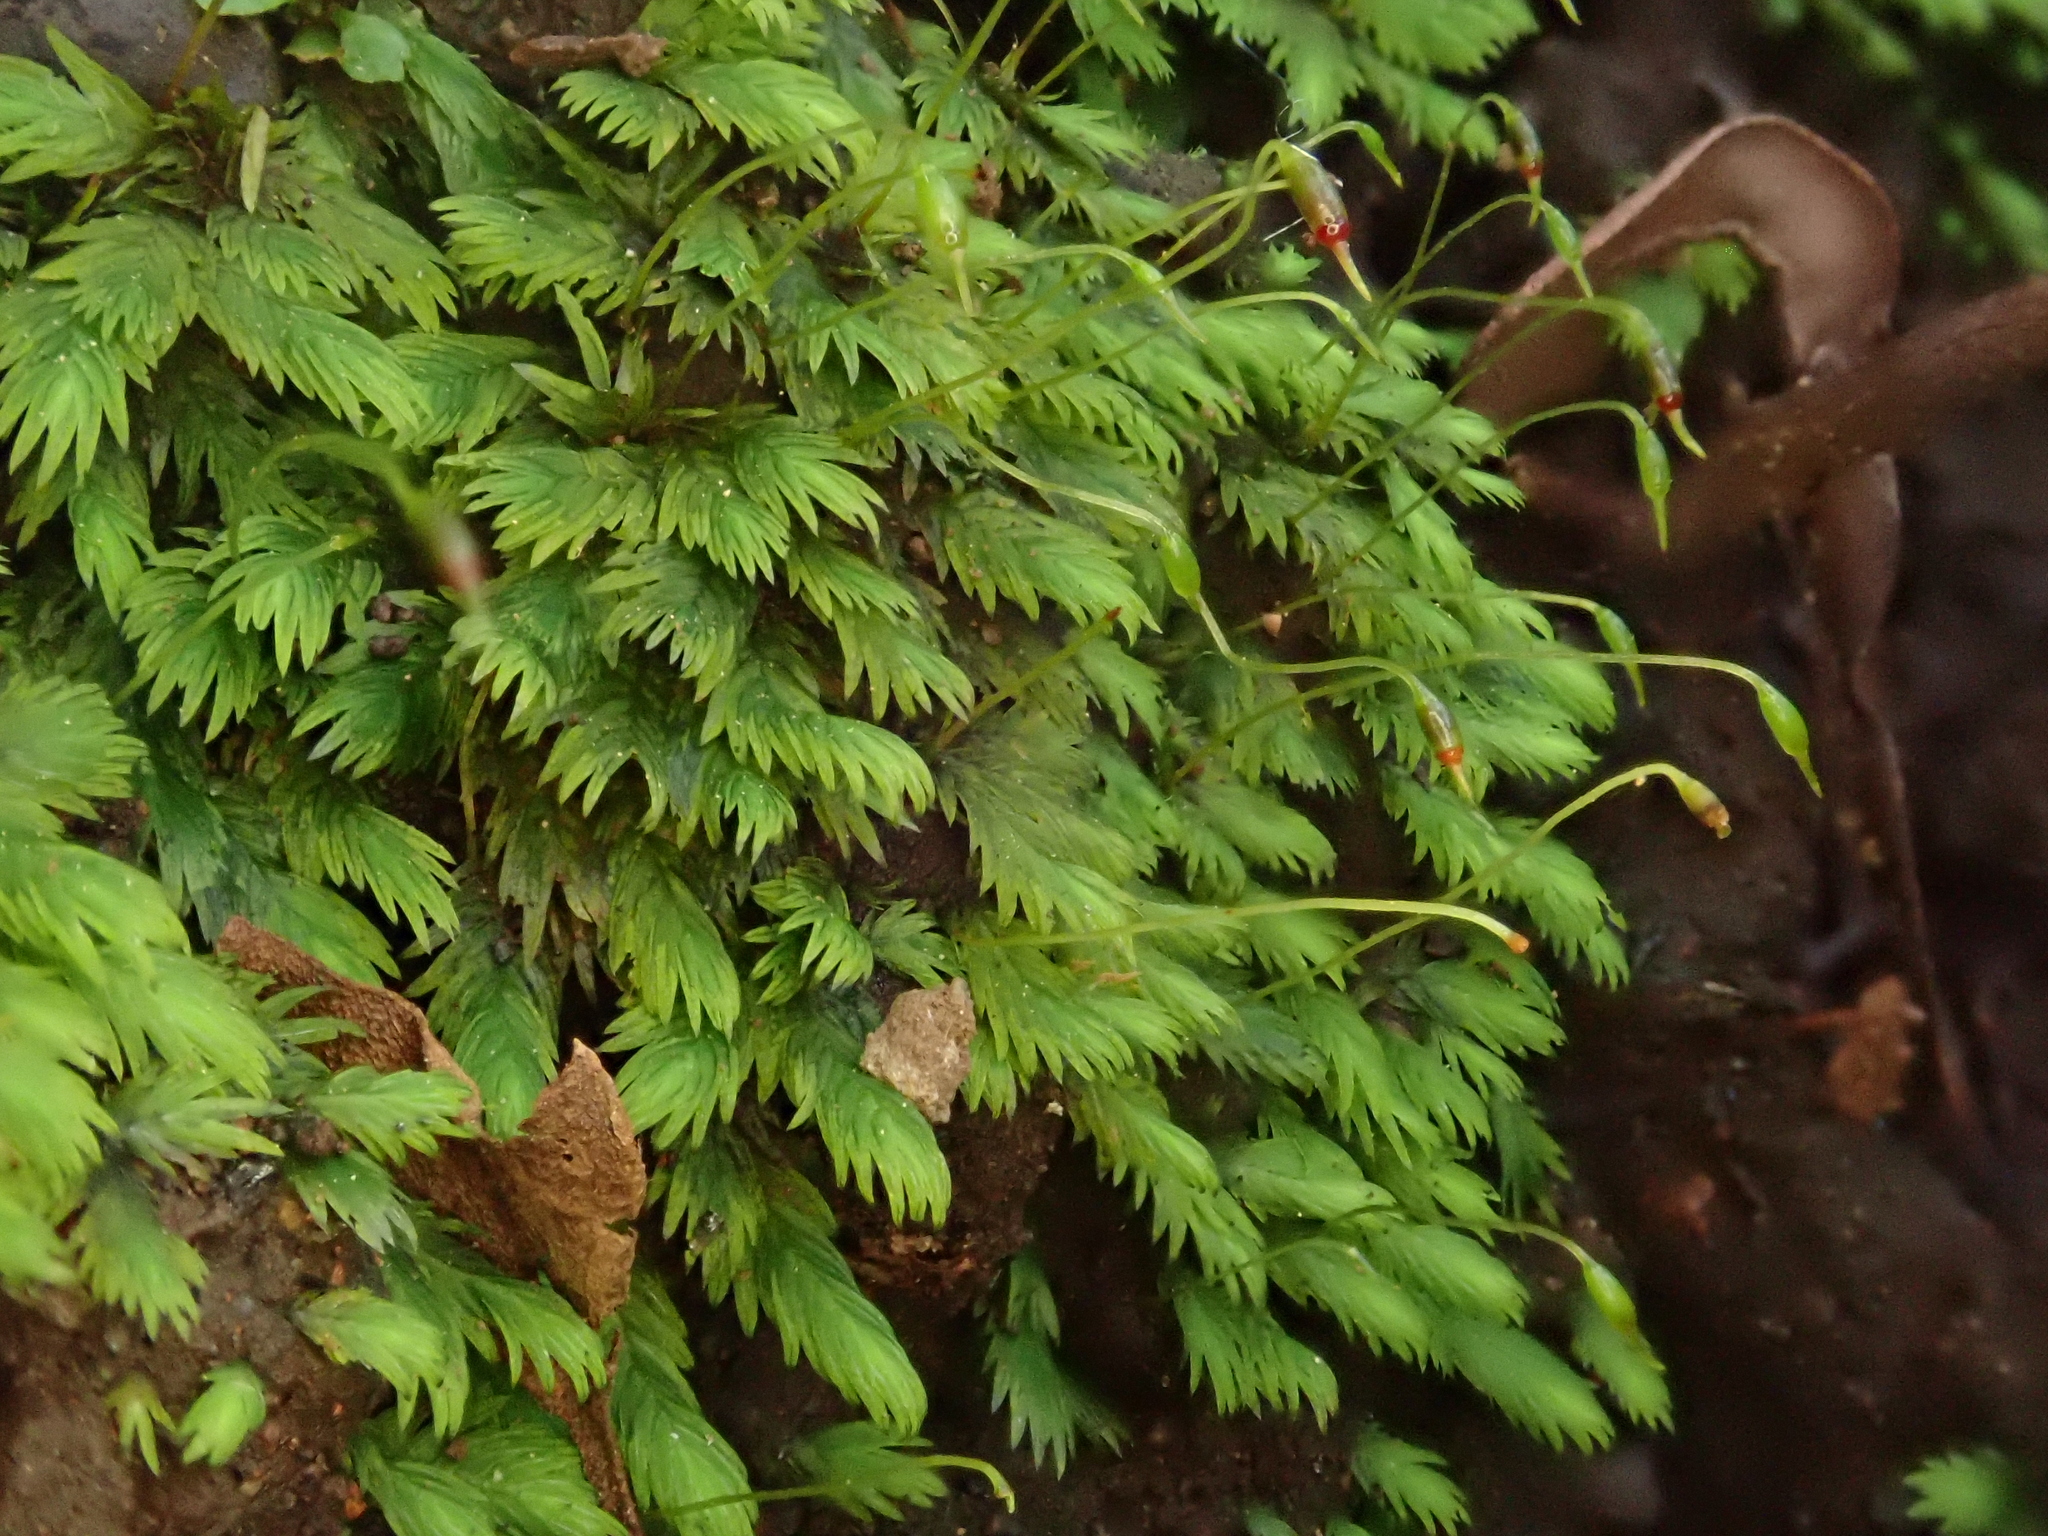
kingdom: Plantae
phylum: Bryophyta
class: Bryopsida
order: Dicranales
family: Fissidentaceae
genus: Fissidens
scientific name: Fissidens serrulatus
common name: Large atlantic pocket-moss
